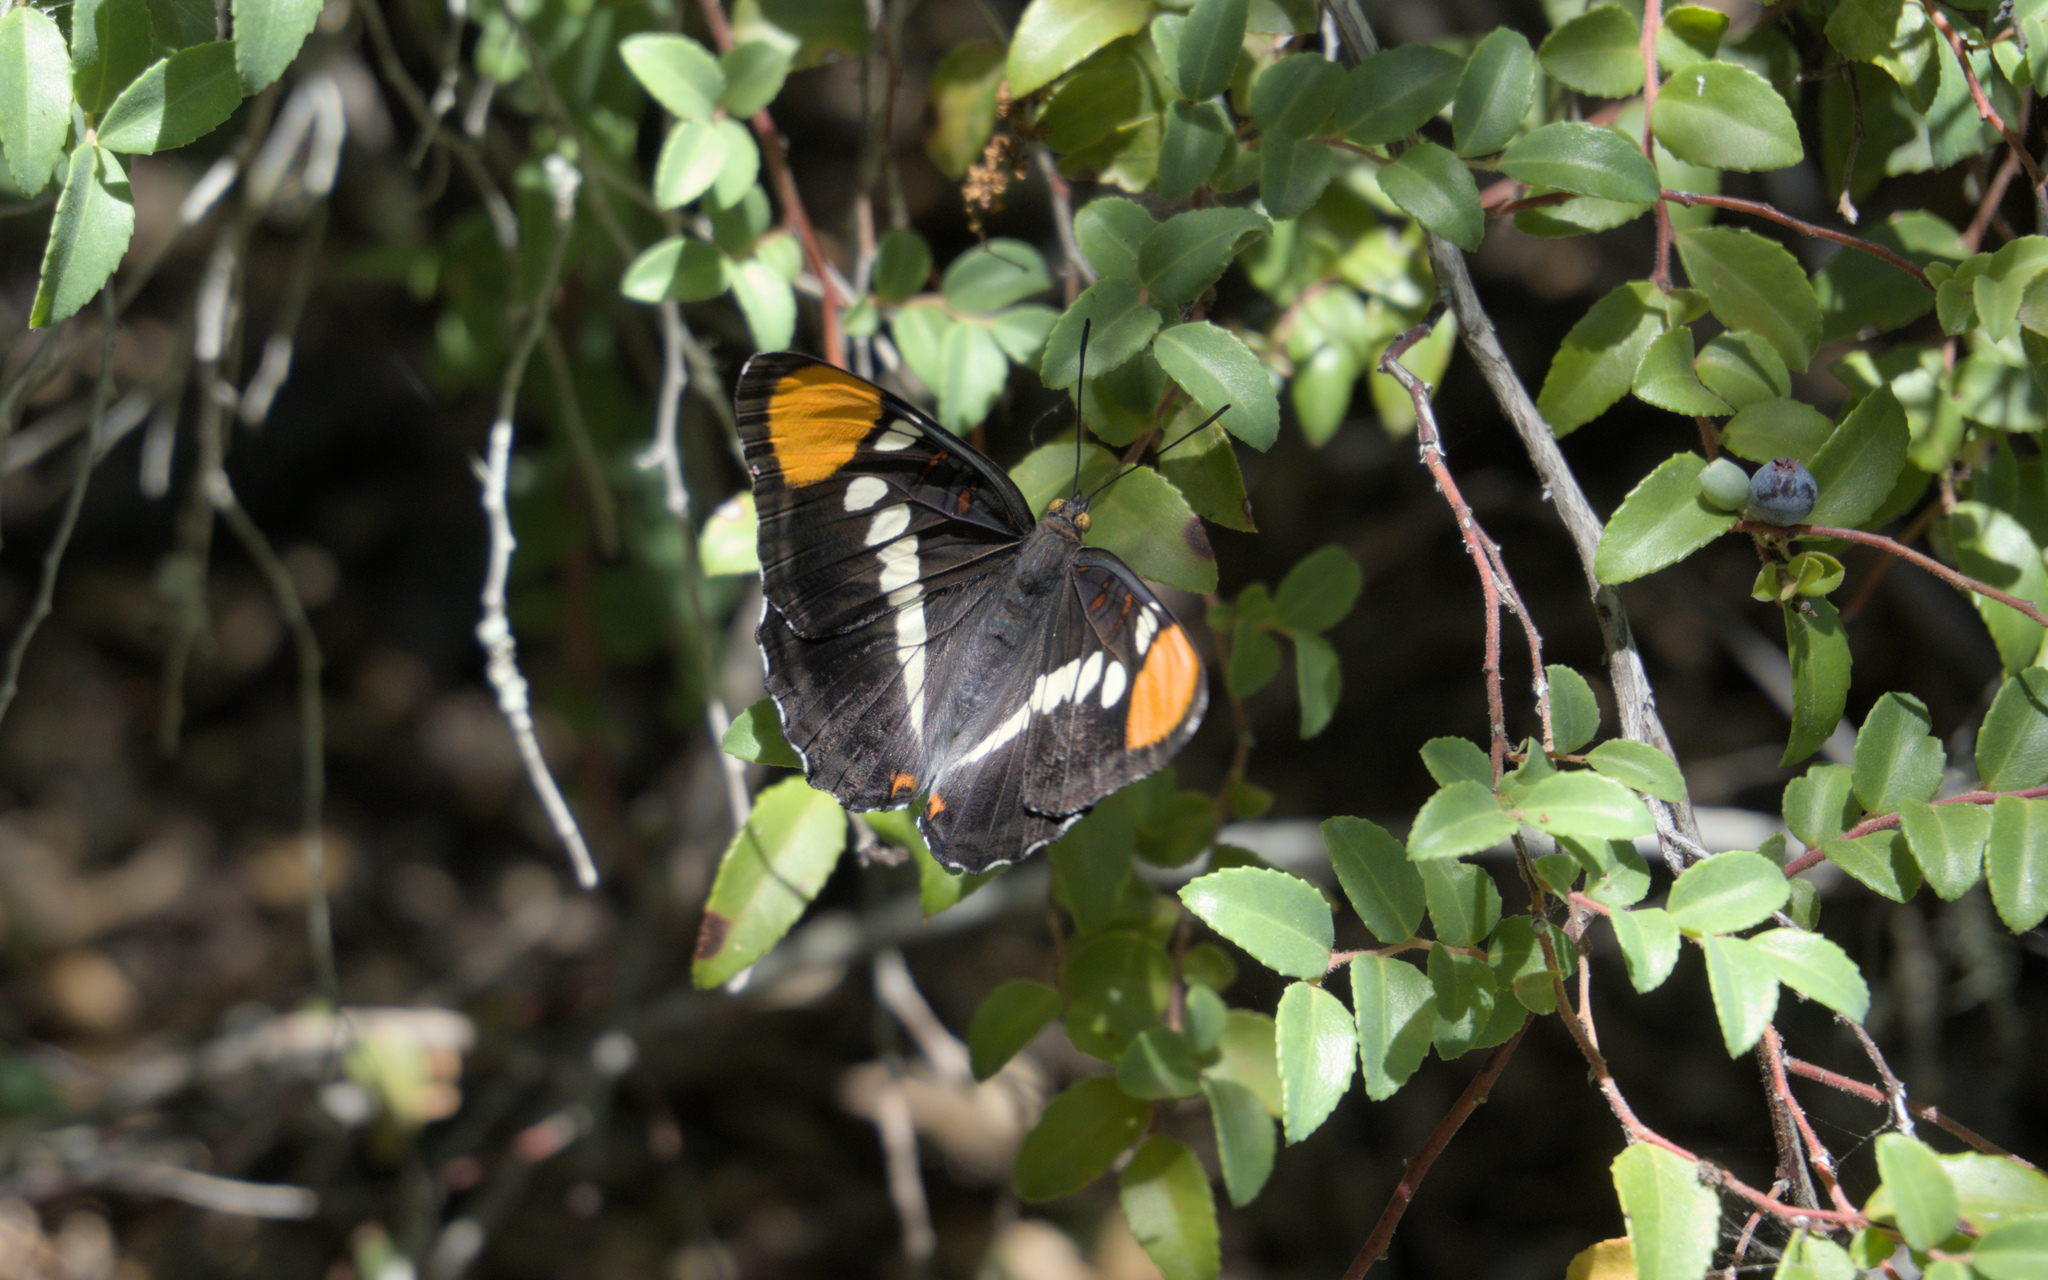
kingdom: Animalia
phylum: Arthropoda
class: Insecta
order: Lepidoptera
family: Nymphalidae
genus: Limenitis
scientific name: Limenitis bredowii
